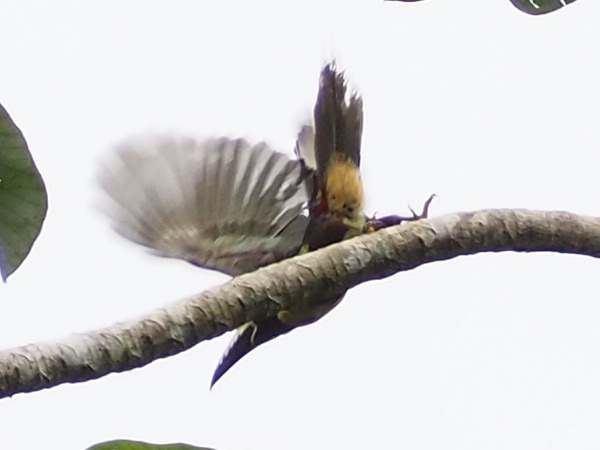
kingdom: Animalia
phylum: Chordata
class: Aves
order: Piciformes
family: Ramphastidae
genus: Pteroglossus
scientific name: Pteroglossus torquatus
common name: Collared aracari
